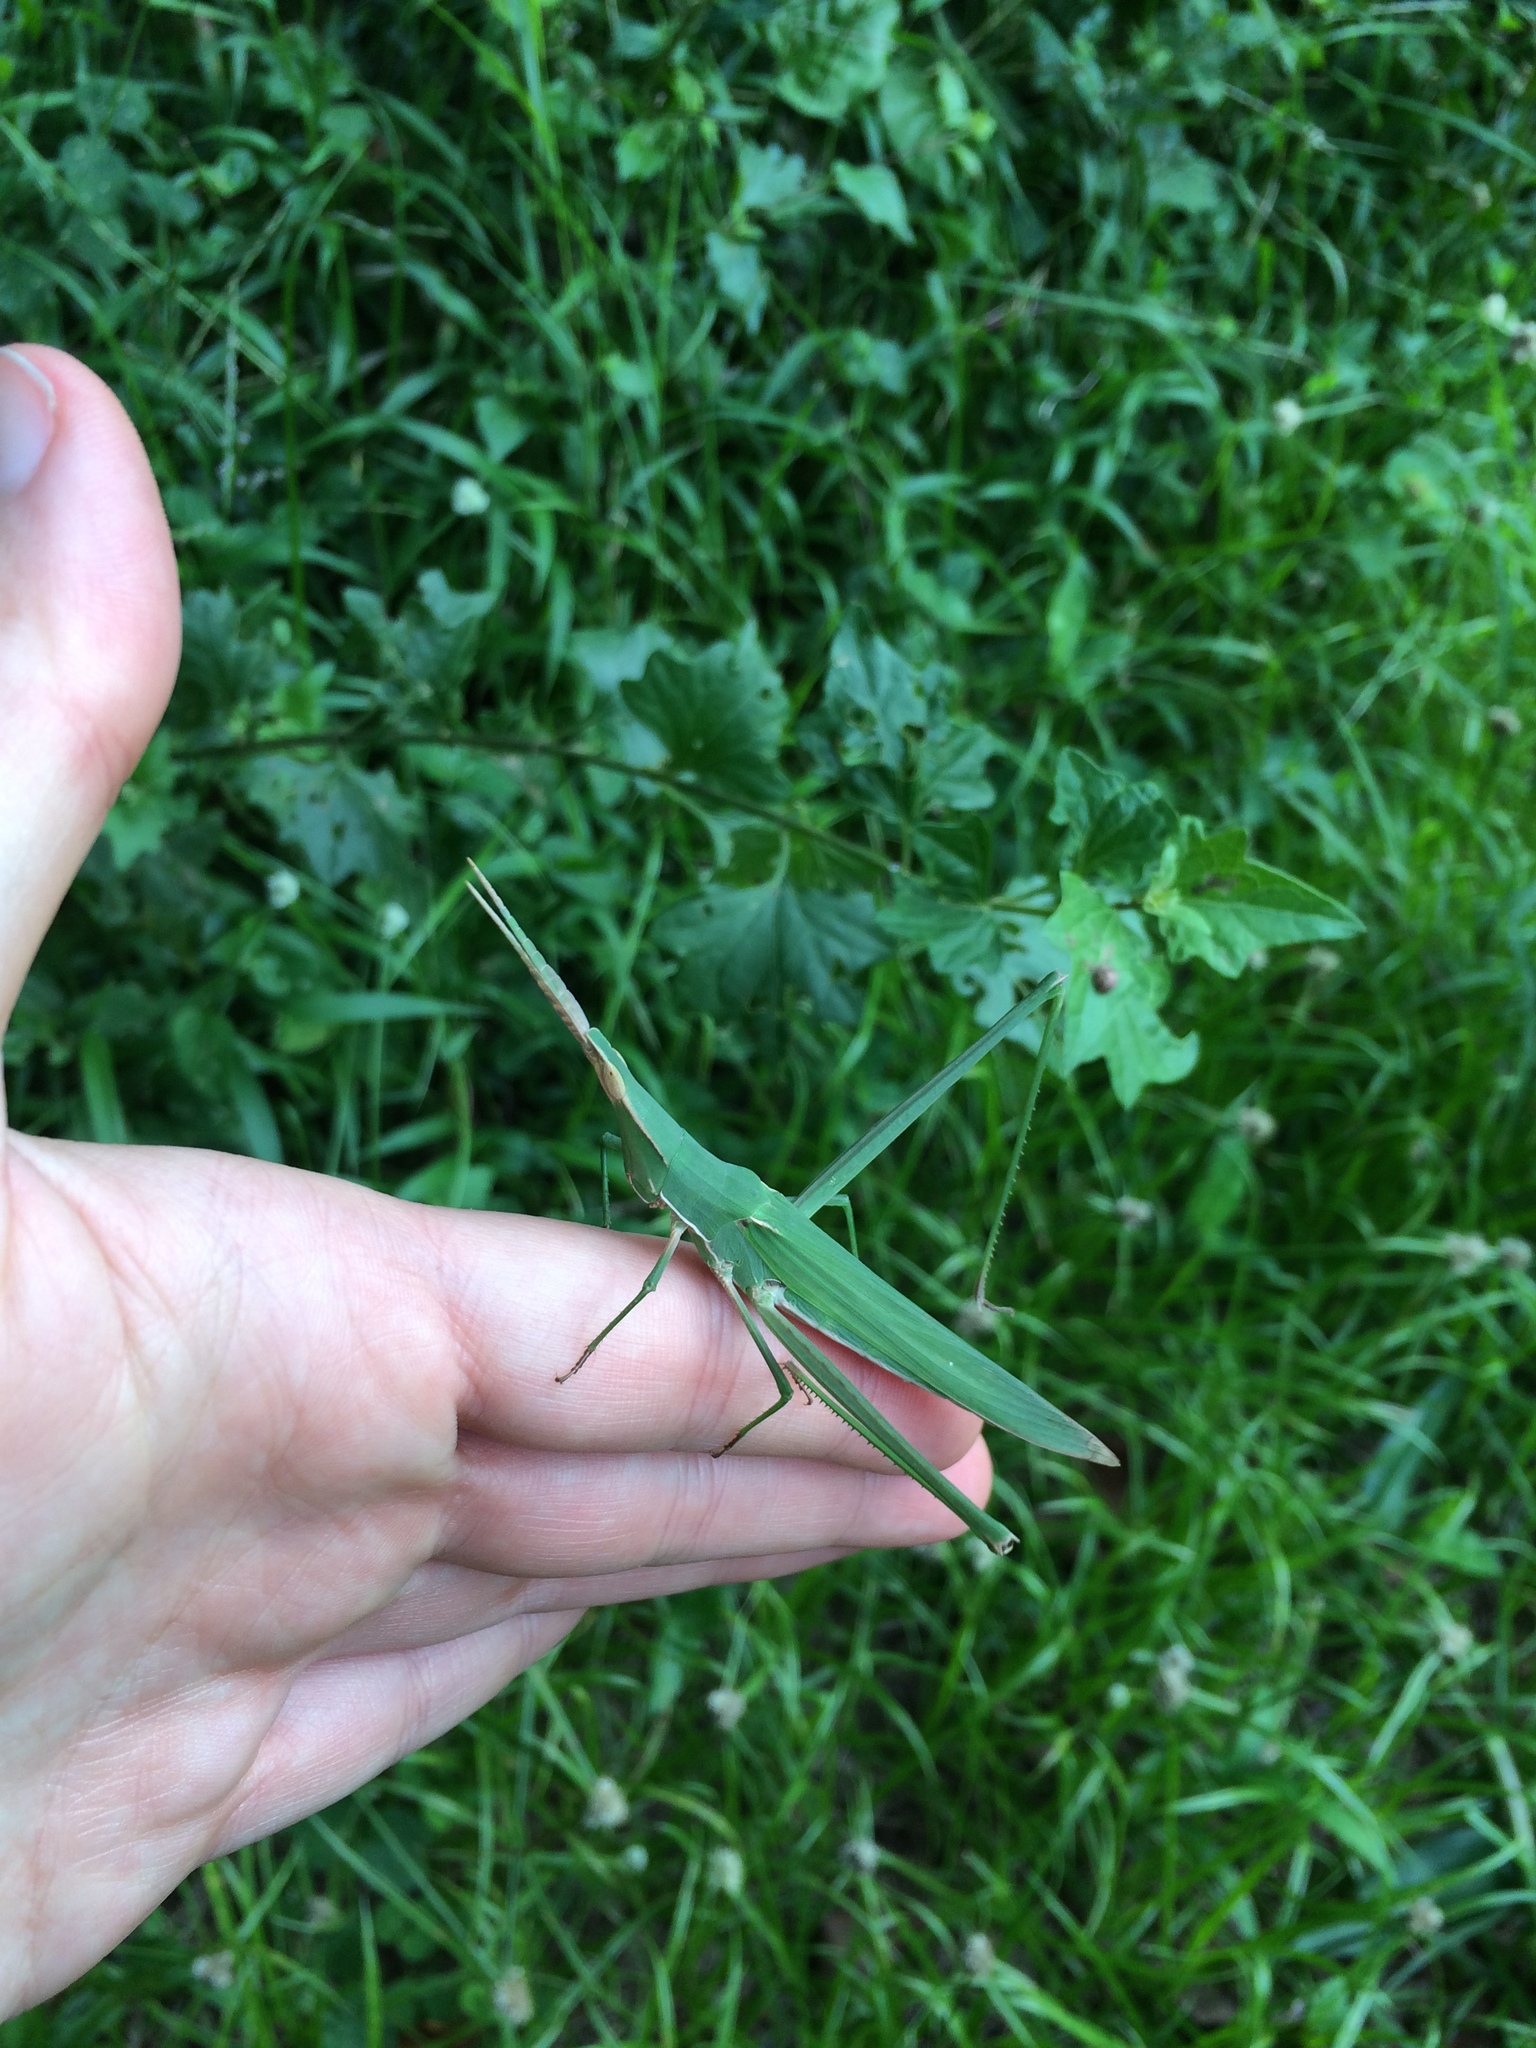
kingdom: Animalia
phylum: Arthropoda
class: Insecta
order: Orthoptera
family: Acrididae
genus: Acrida
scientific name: Acrida acuminata
